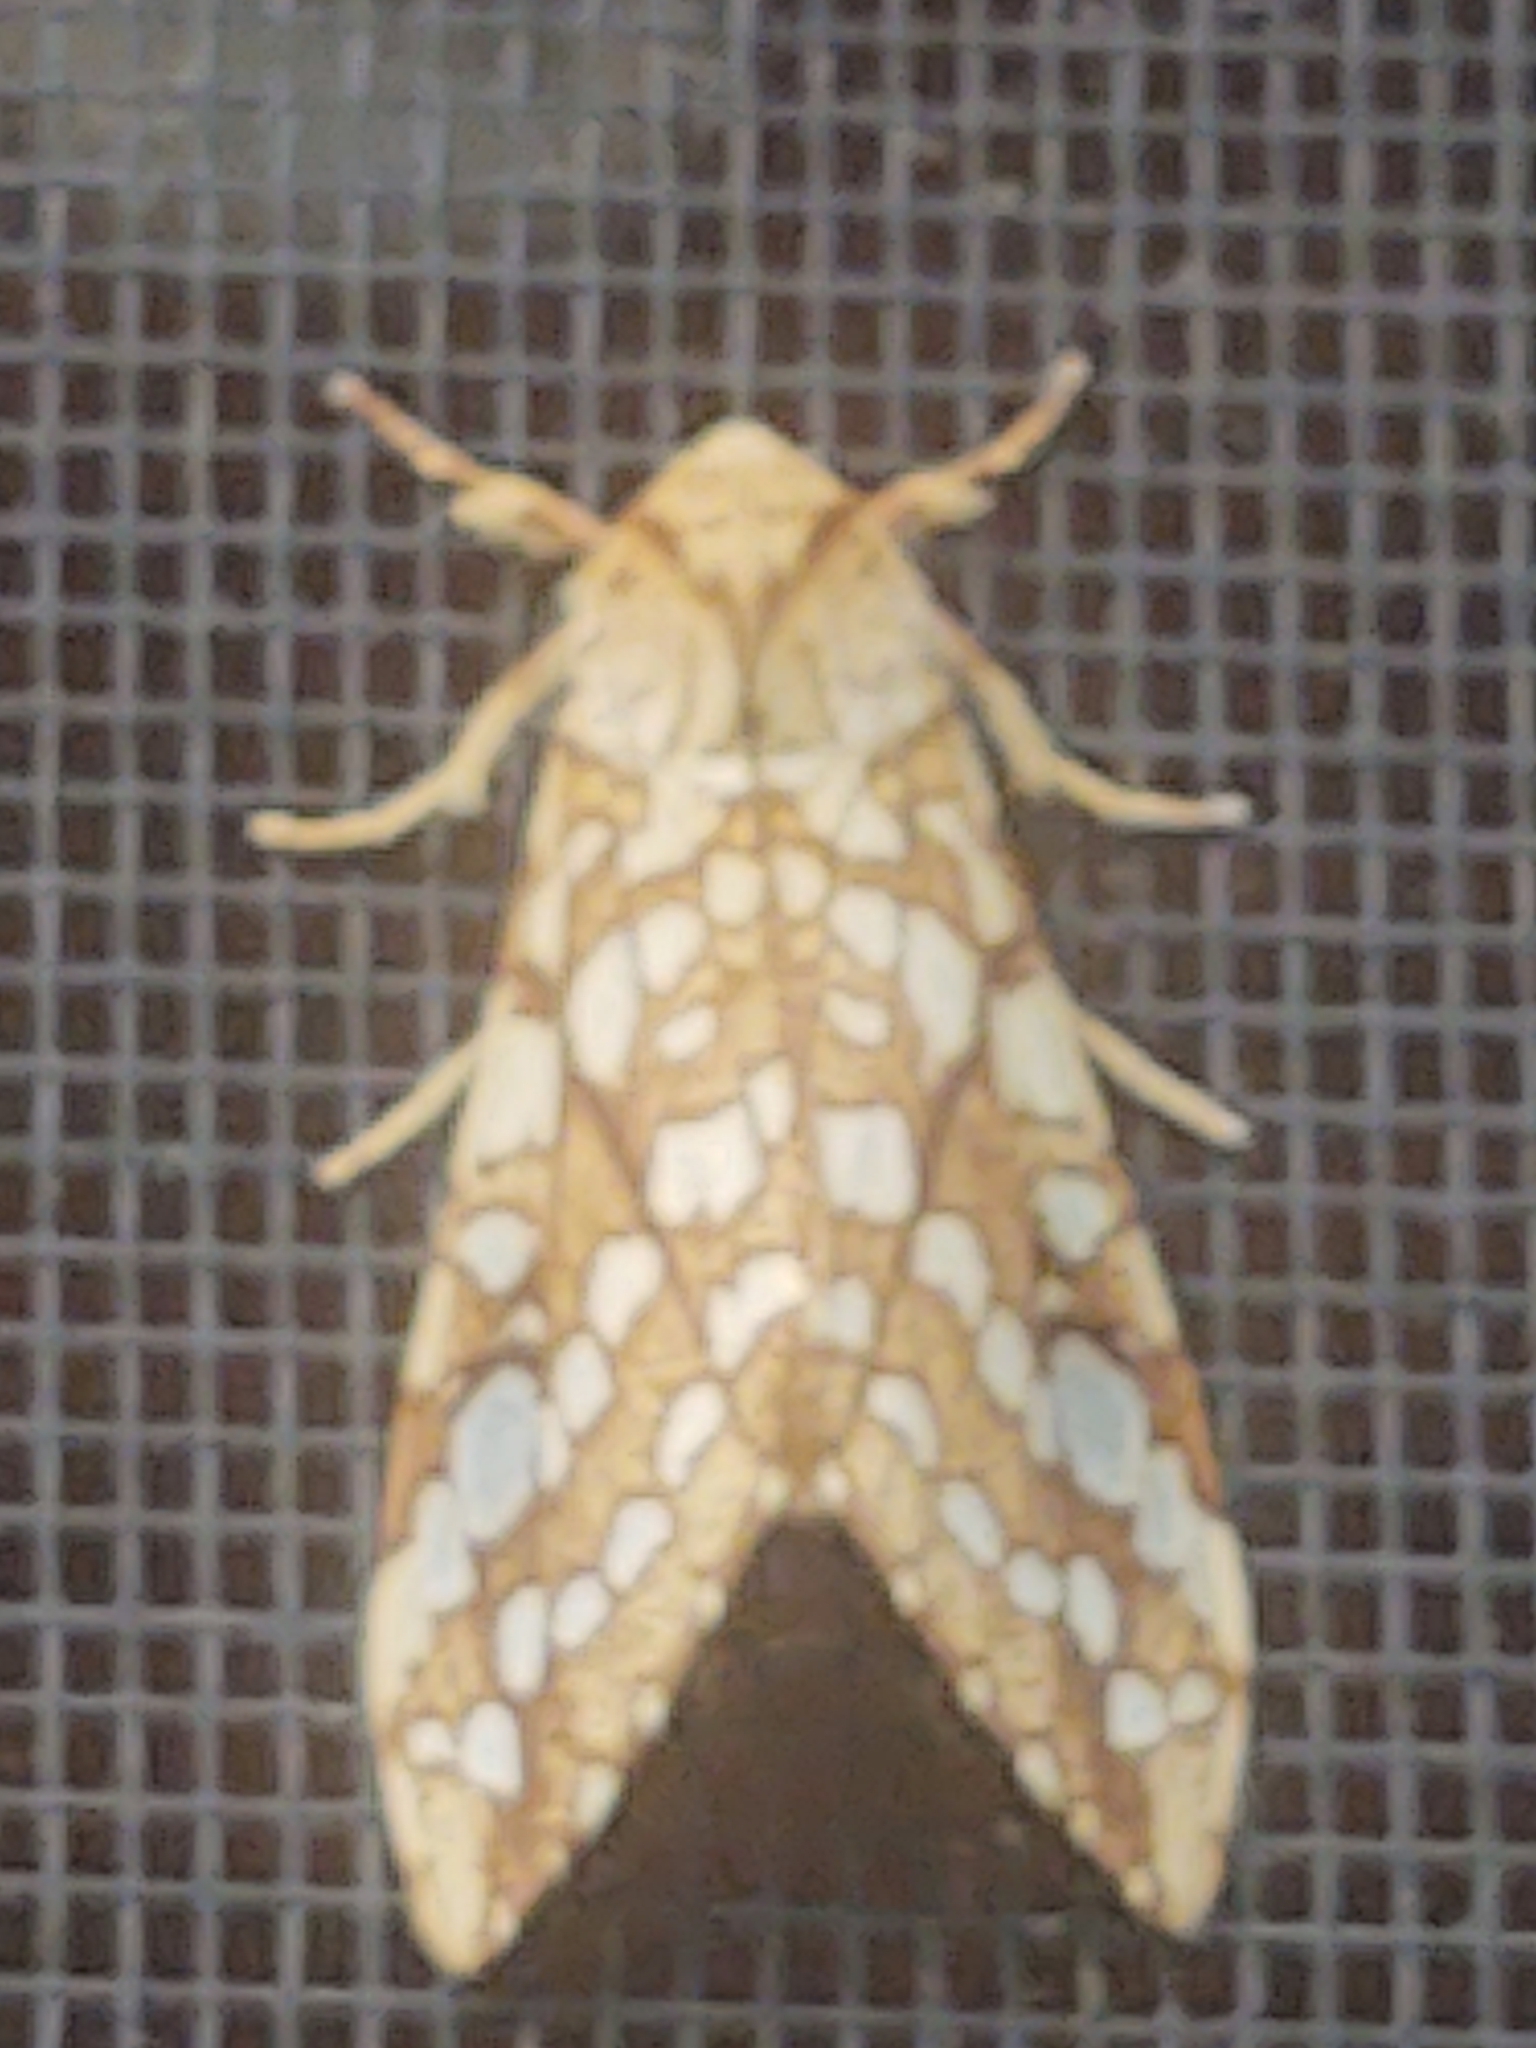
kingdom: Animalia
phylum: Arthropoda
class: Insecta
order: Lepidoptera
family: Erebidae
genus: Lophocampa
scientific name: Lophocampa caryae
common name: Hickory tussock moth
